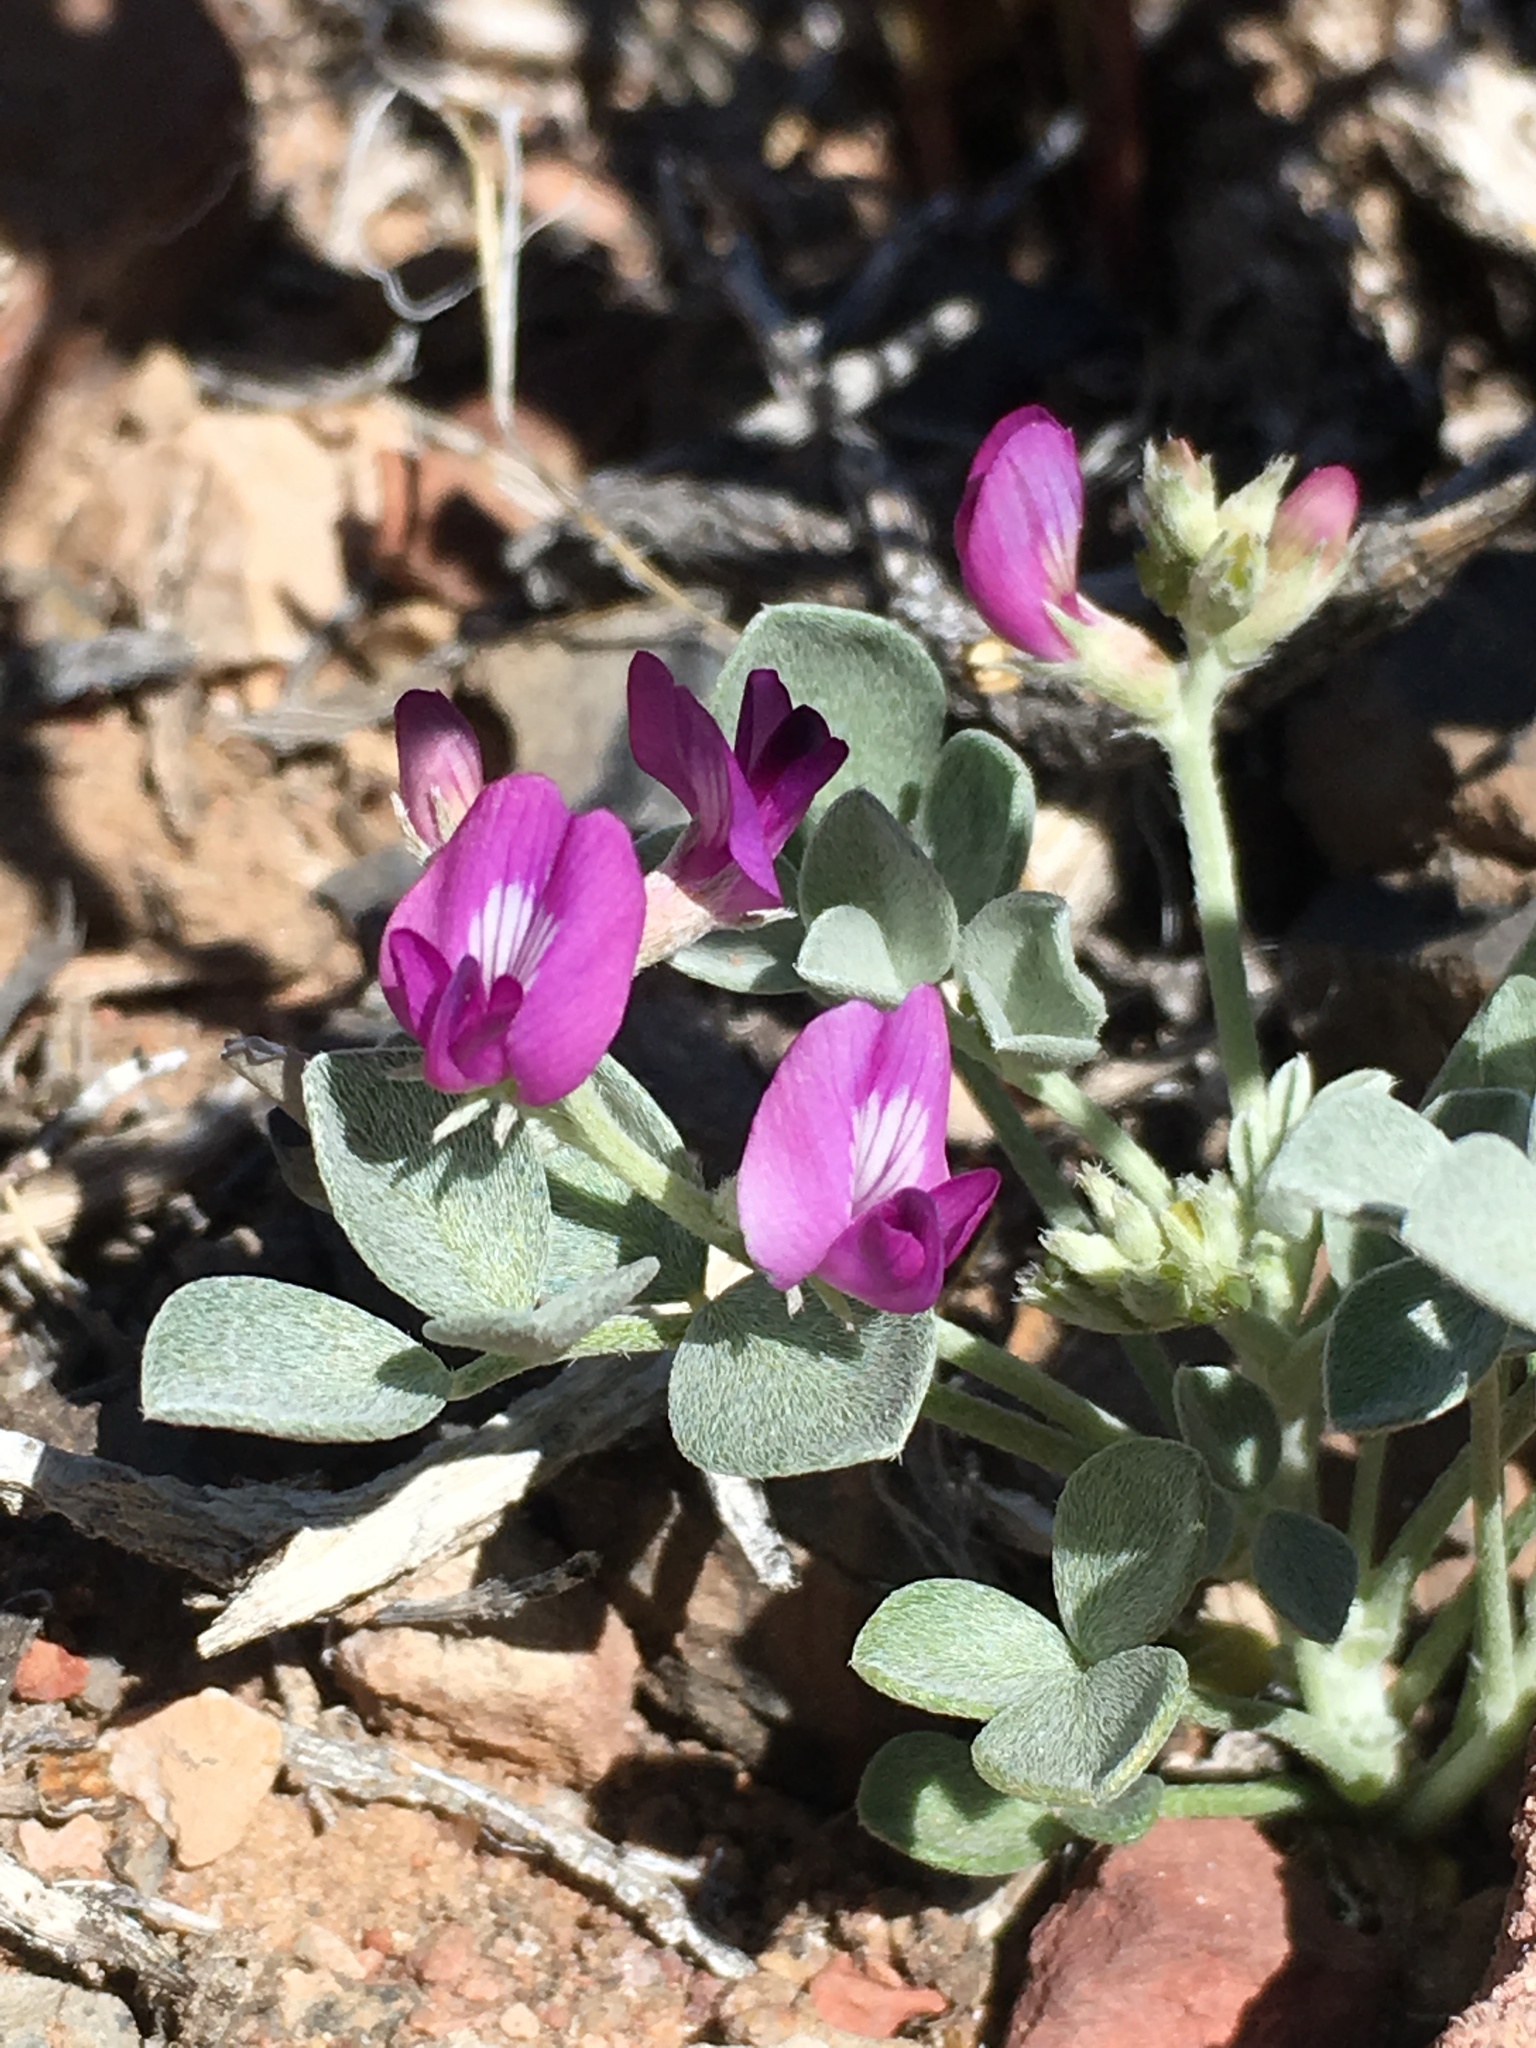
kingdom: Plantae
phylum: Tracheophyta
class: Magnoliopsida
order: Fabales
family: Fabaceae
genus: Astragalus
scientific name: Astragalus mohavensis
